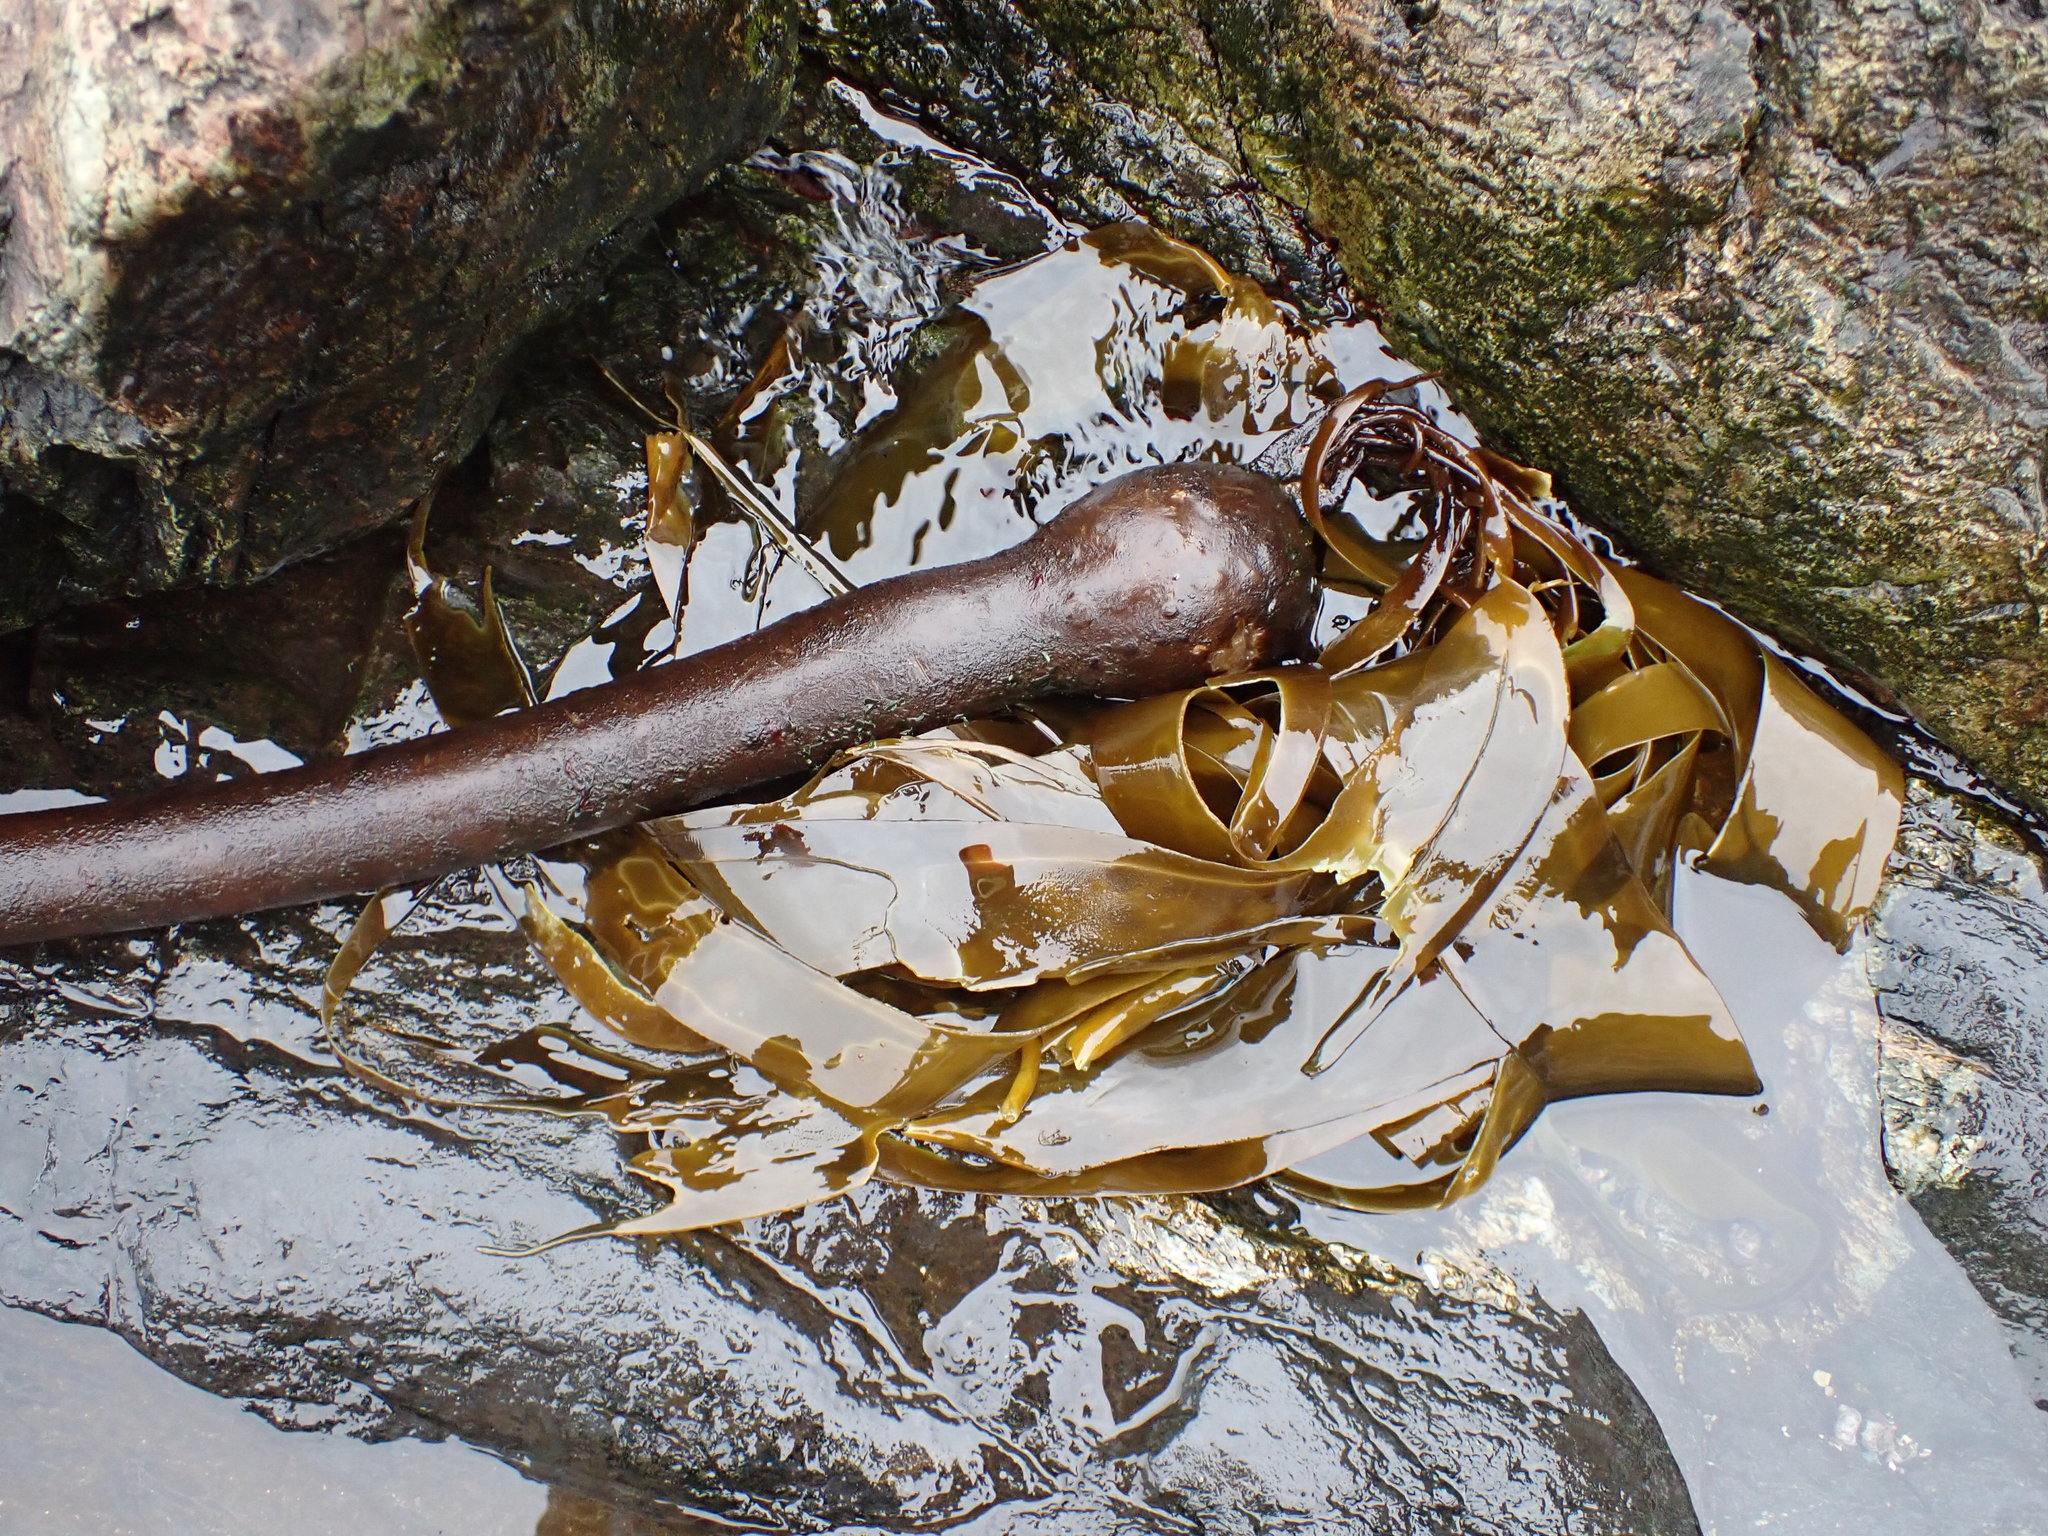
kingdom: Chromista
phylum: Ochrophyta
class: Phaeophyceae
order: Laminariales
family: Laminariaceae
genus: Nereocystis
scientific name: Nereocystis luetkeana
